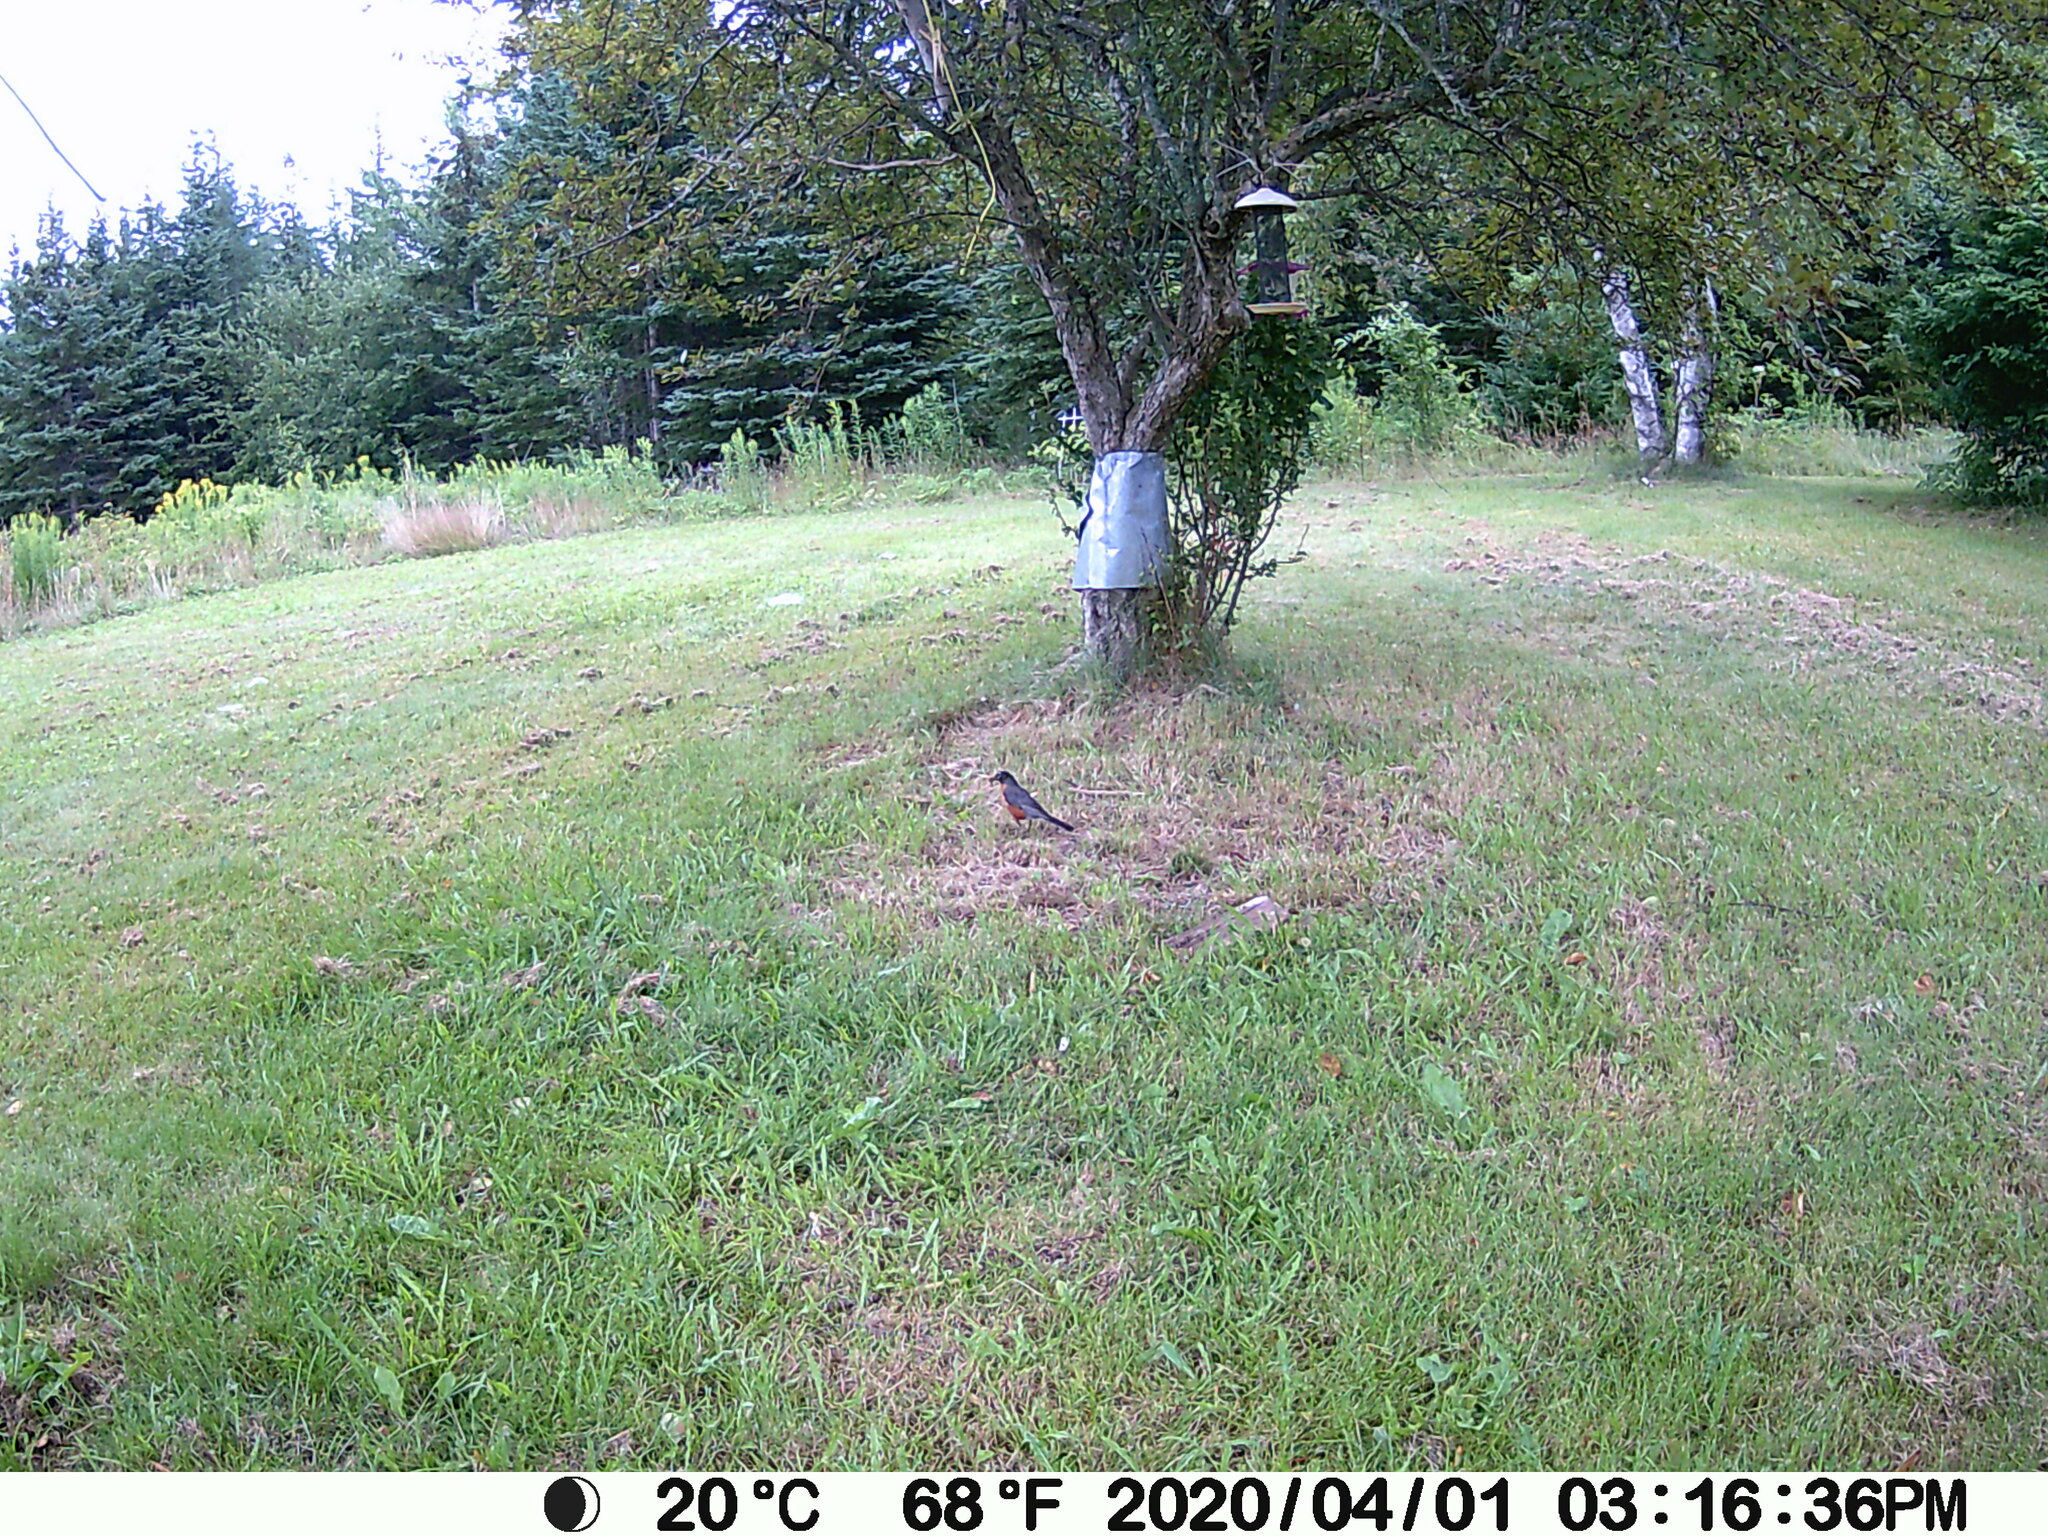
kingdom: Animalia
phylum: Chordata
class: Aves
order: Passeriformes
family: Turdidae
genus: Turdus
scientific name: Turdus migratorius
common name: American robin
